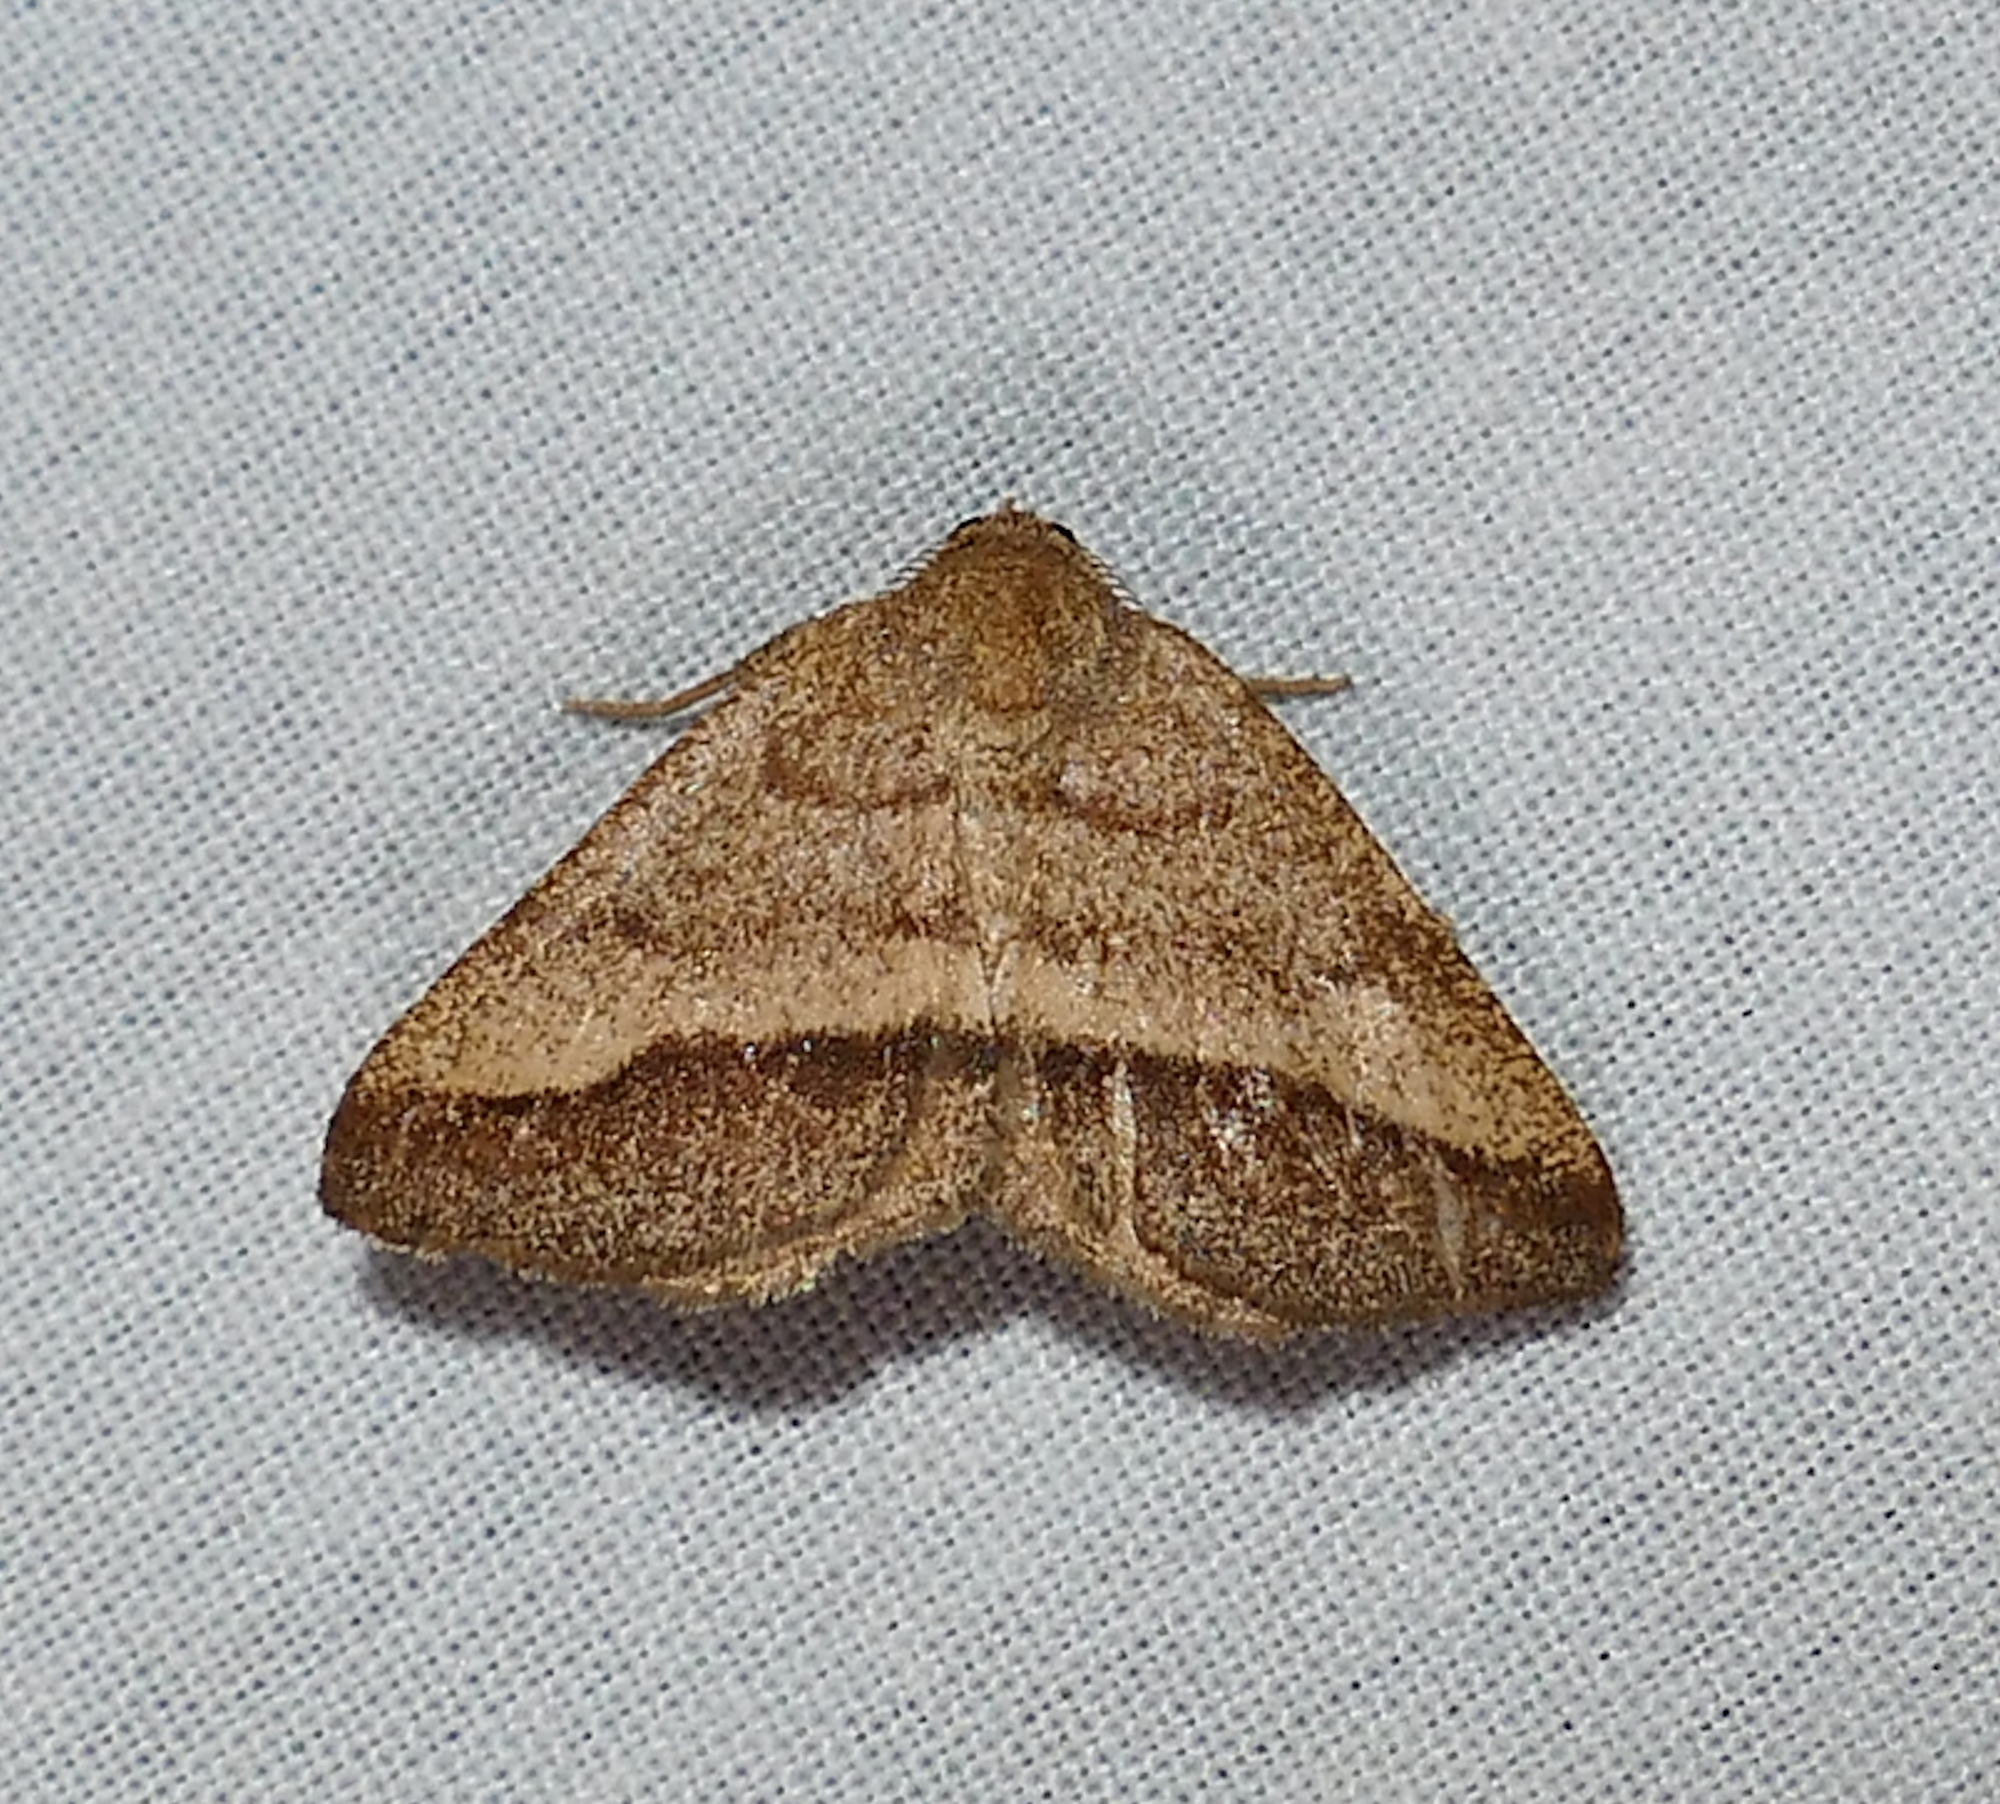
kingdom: Animalia
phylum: Arthropoda
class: Insecta
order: Lepidoptera
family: Geometridae
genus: Macaria
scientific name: Macaria varadaria
